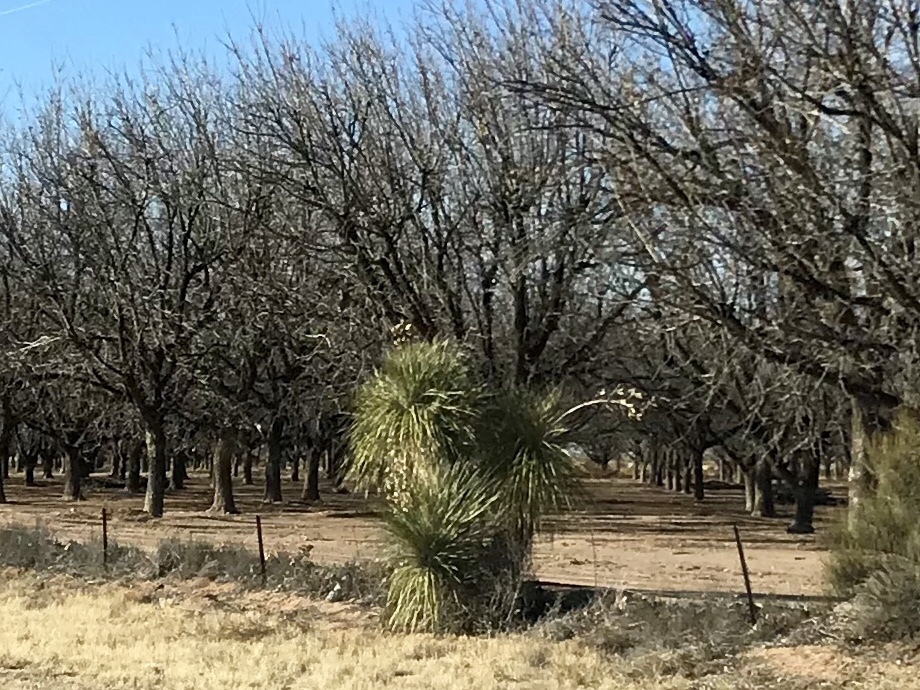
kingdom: Plantae
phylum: Tracheophyta
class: Liliopsida
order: Asparagales
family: Asparagaceae
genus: Yucca
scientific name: Yucca elata
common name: Palmella
